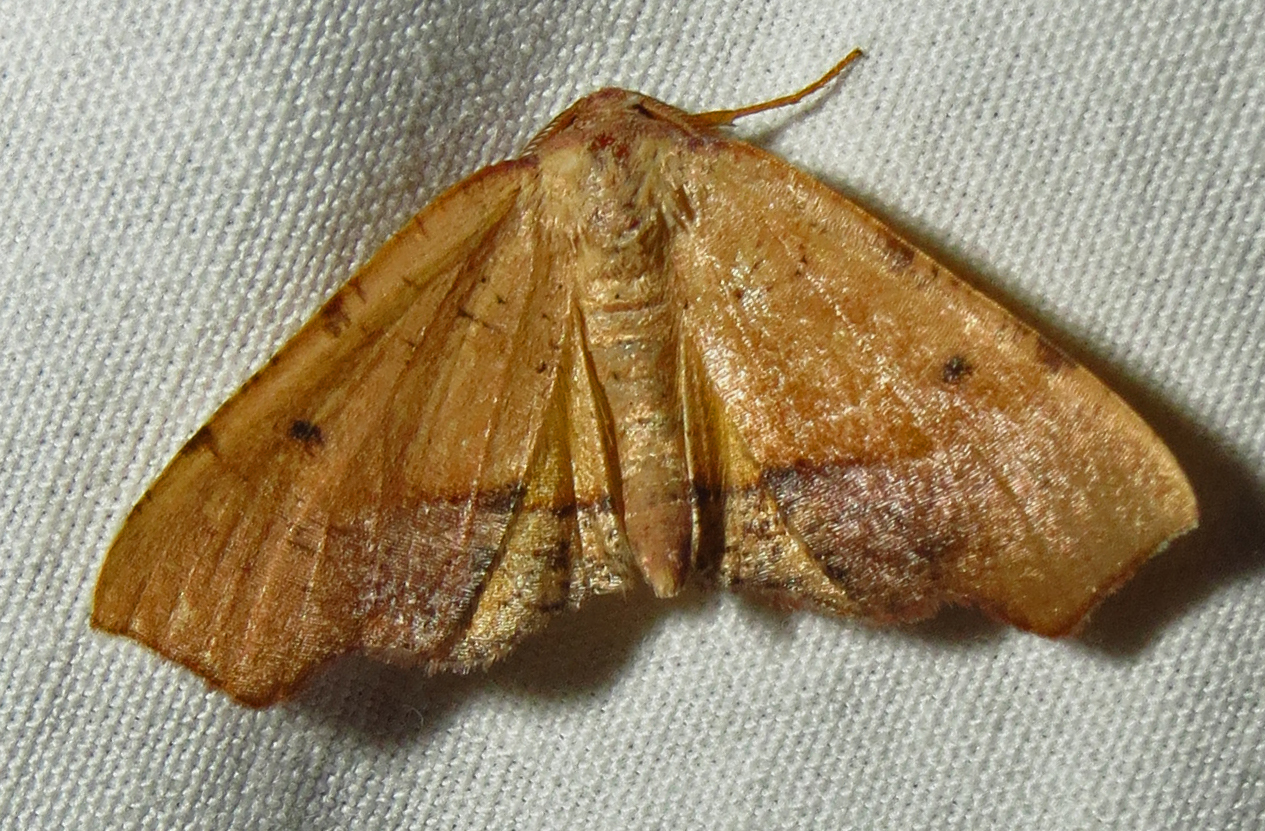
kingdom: Animalia
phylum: Arthropoda
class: Insecta
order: Lepidoptera
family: Geometridae
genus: Plagodis
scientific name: Plagodis fervidaria
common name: Fervid plagodis
